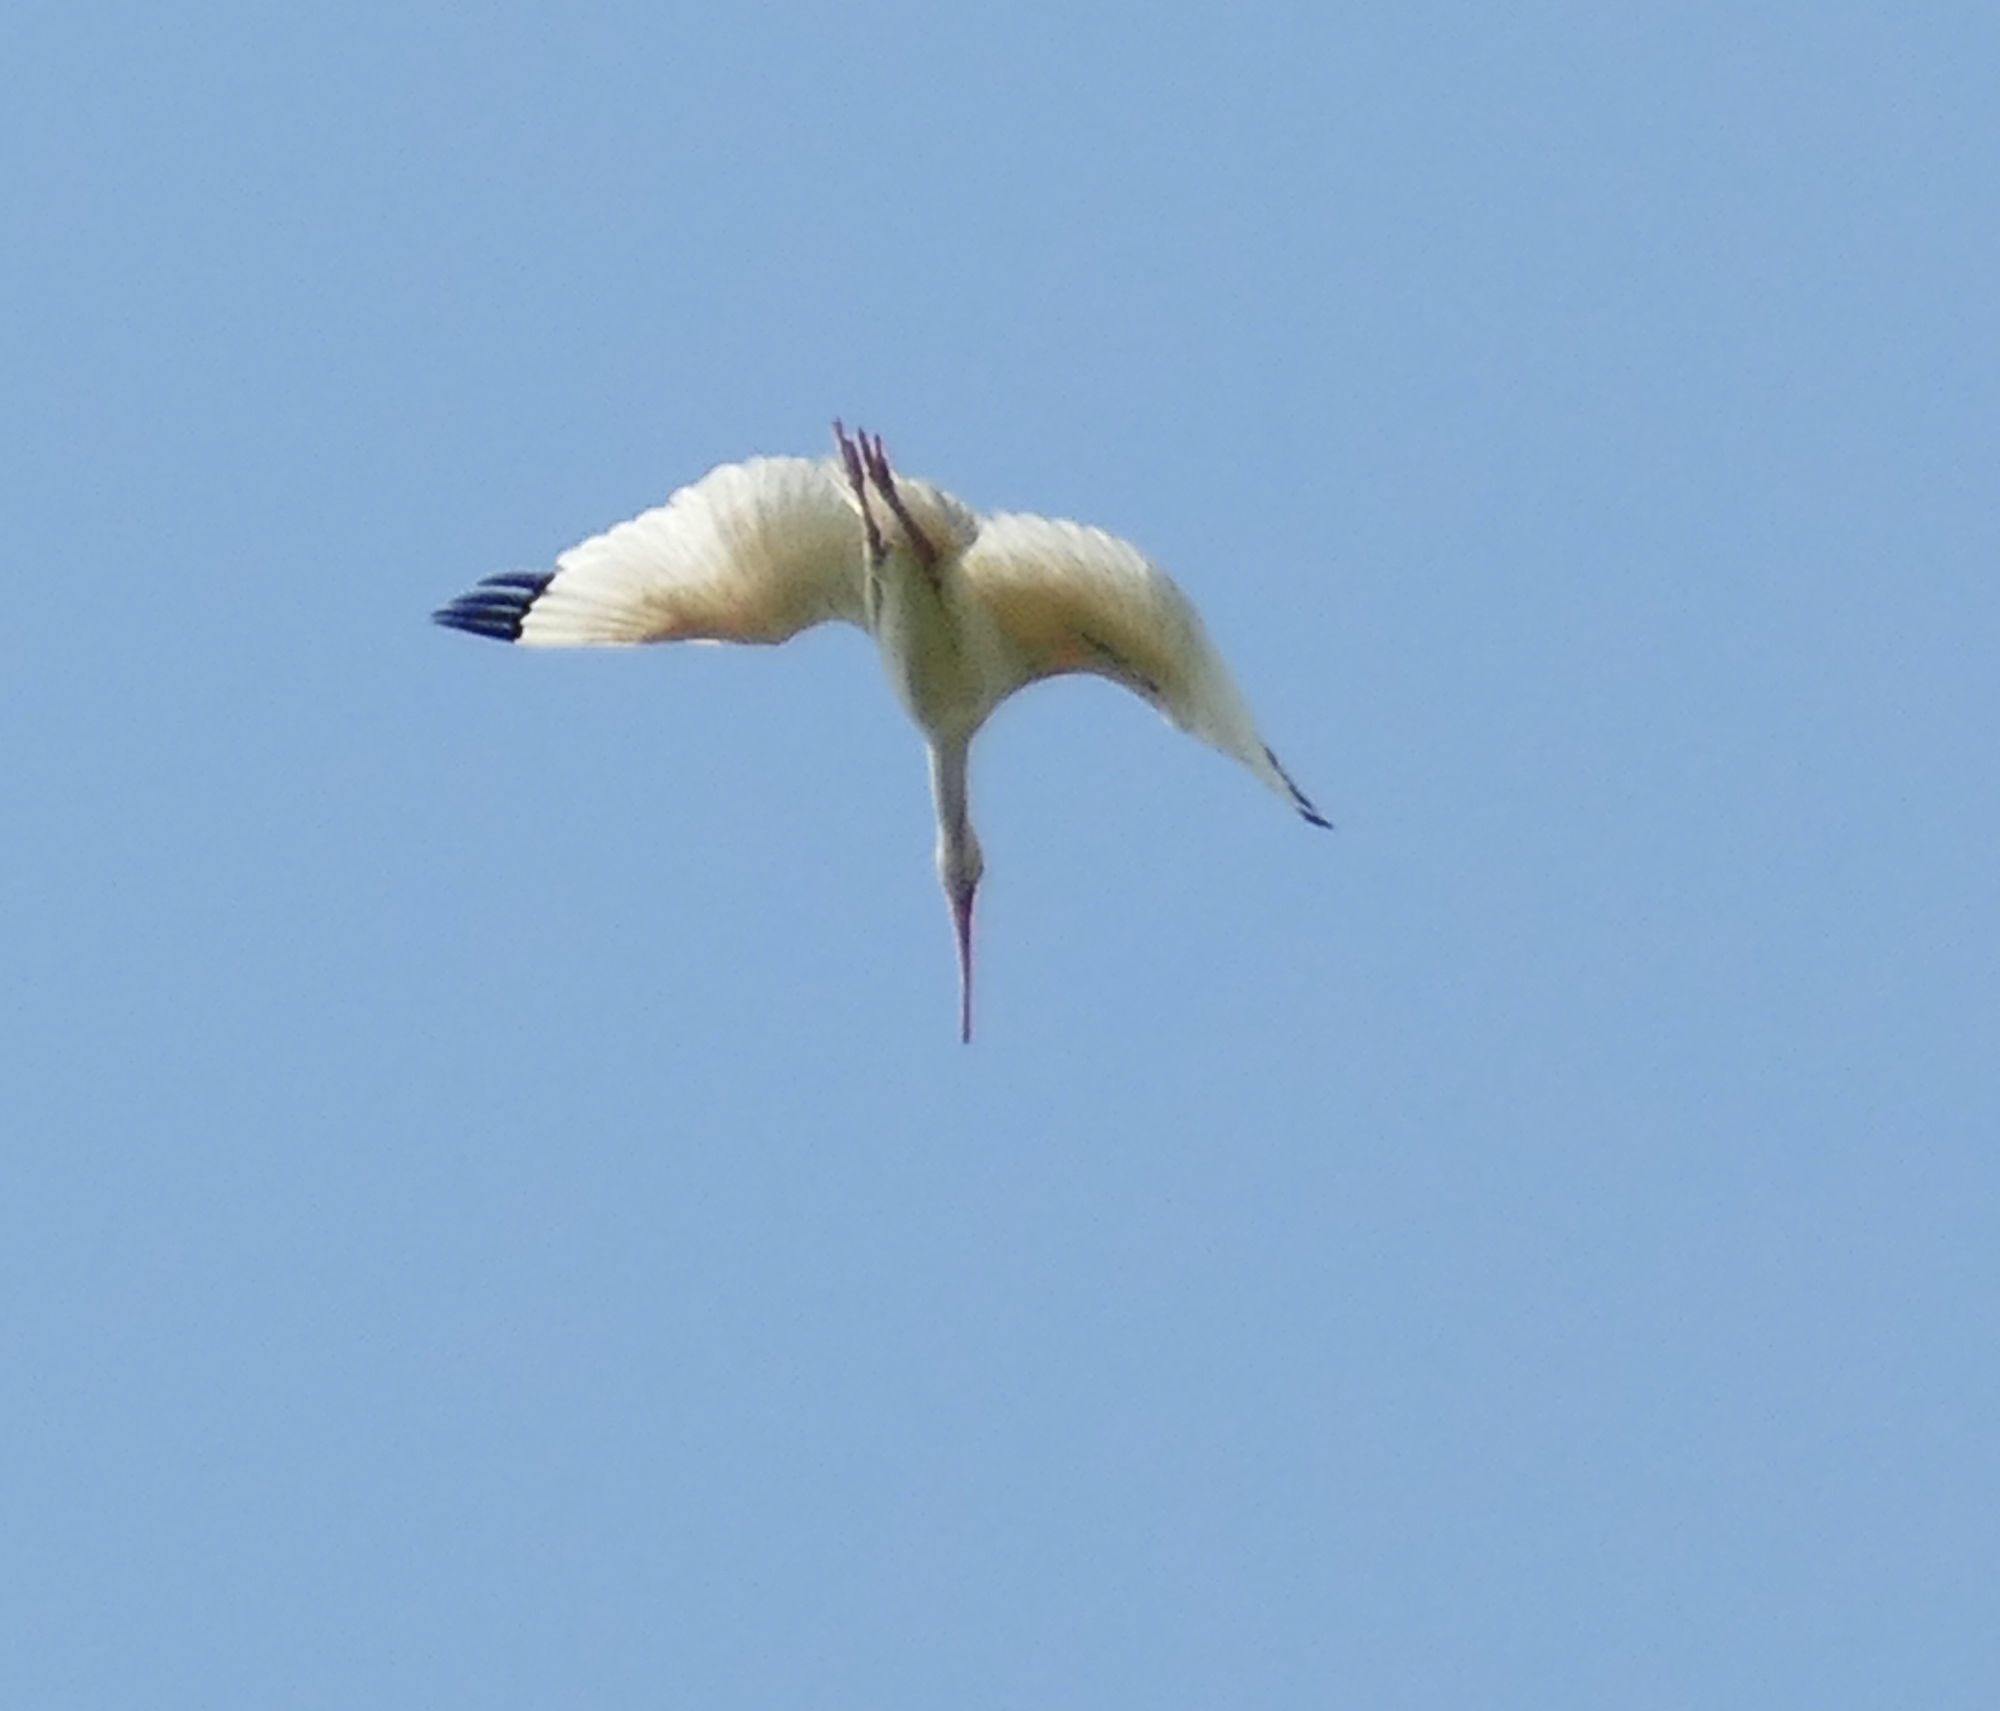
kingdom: Animalia
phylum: Chordata
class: Aves
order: Pelecaniformes
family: Threskiornithidae
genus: Eudocimus
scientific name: Eudocimus albus
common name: White ibis
